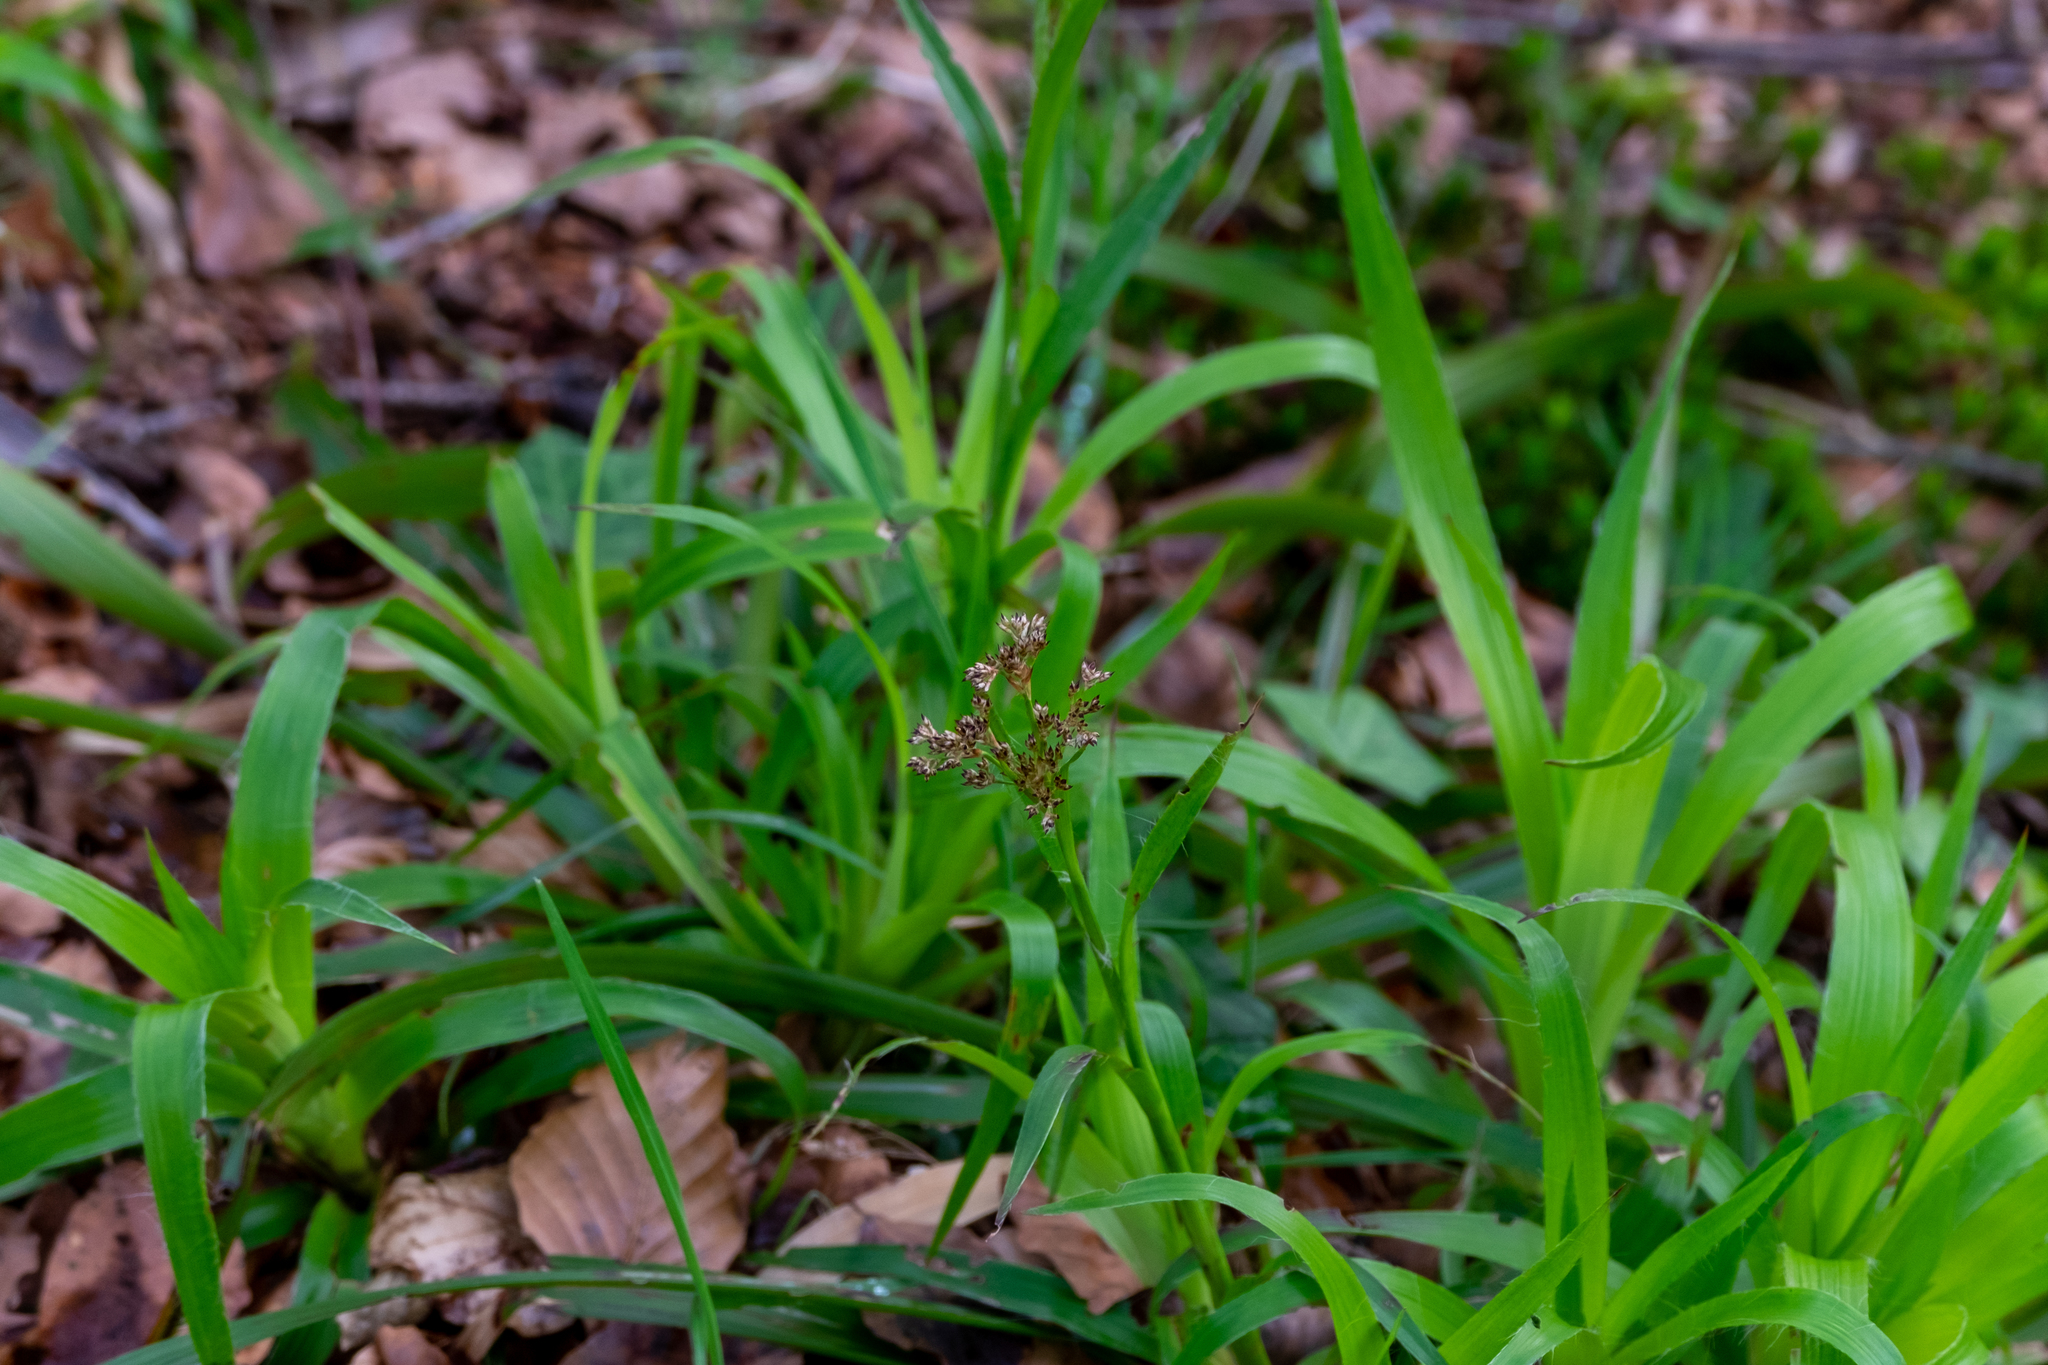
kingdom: Plantae
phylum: Tracheophyta
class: Liliopsida
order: Poales
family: Juncaceae
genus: Luzula
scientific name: Luzula sylvatica
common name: Great wood-rush
